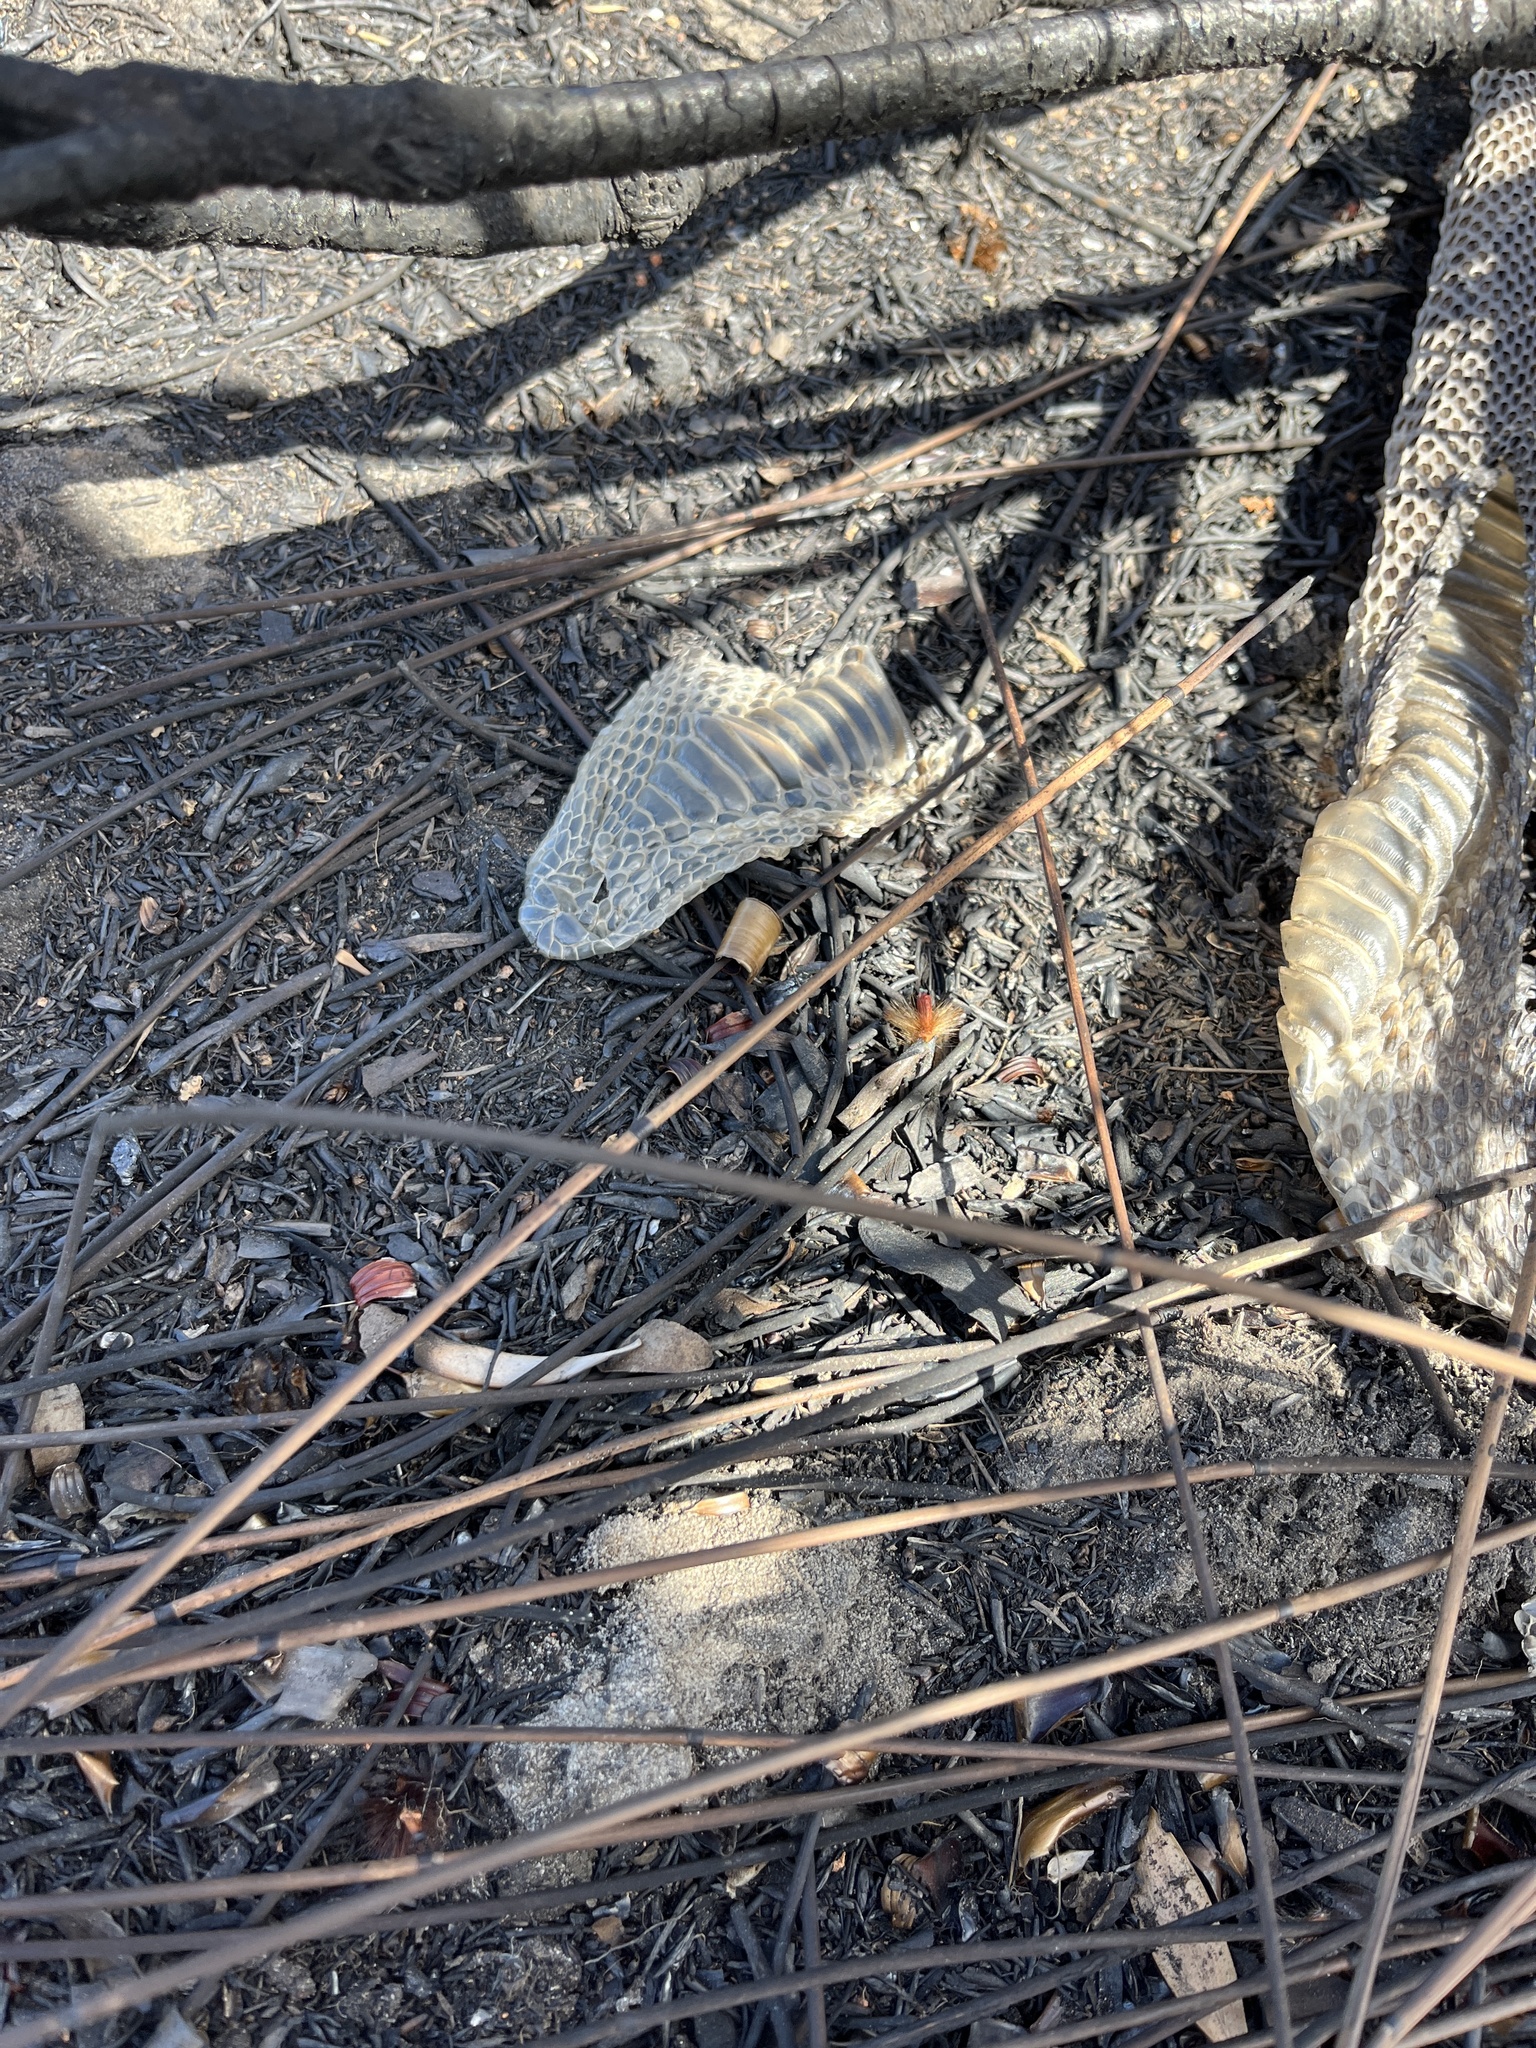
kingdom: Animalia
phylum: Chordata
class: Squamata
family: Viperidae
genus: Bitis
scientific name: Bitis arietans
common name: Puff adder
